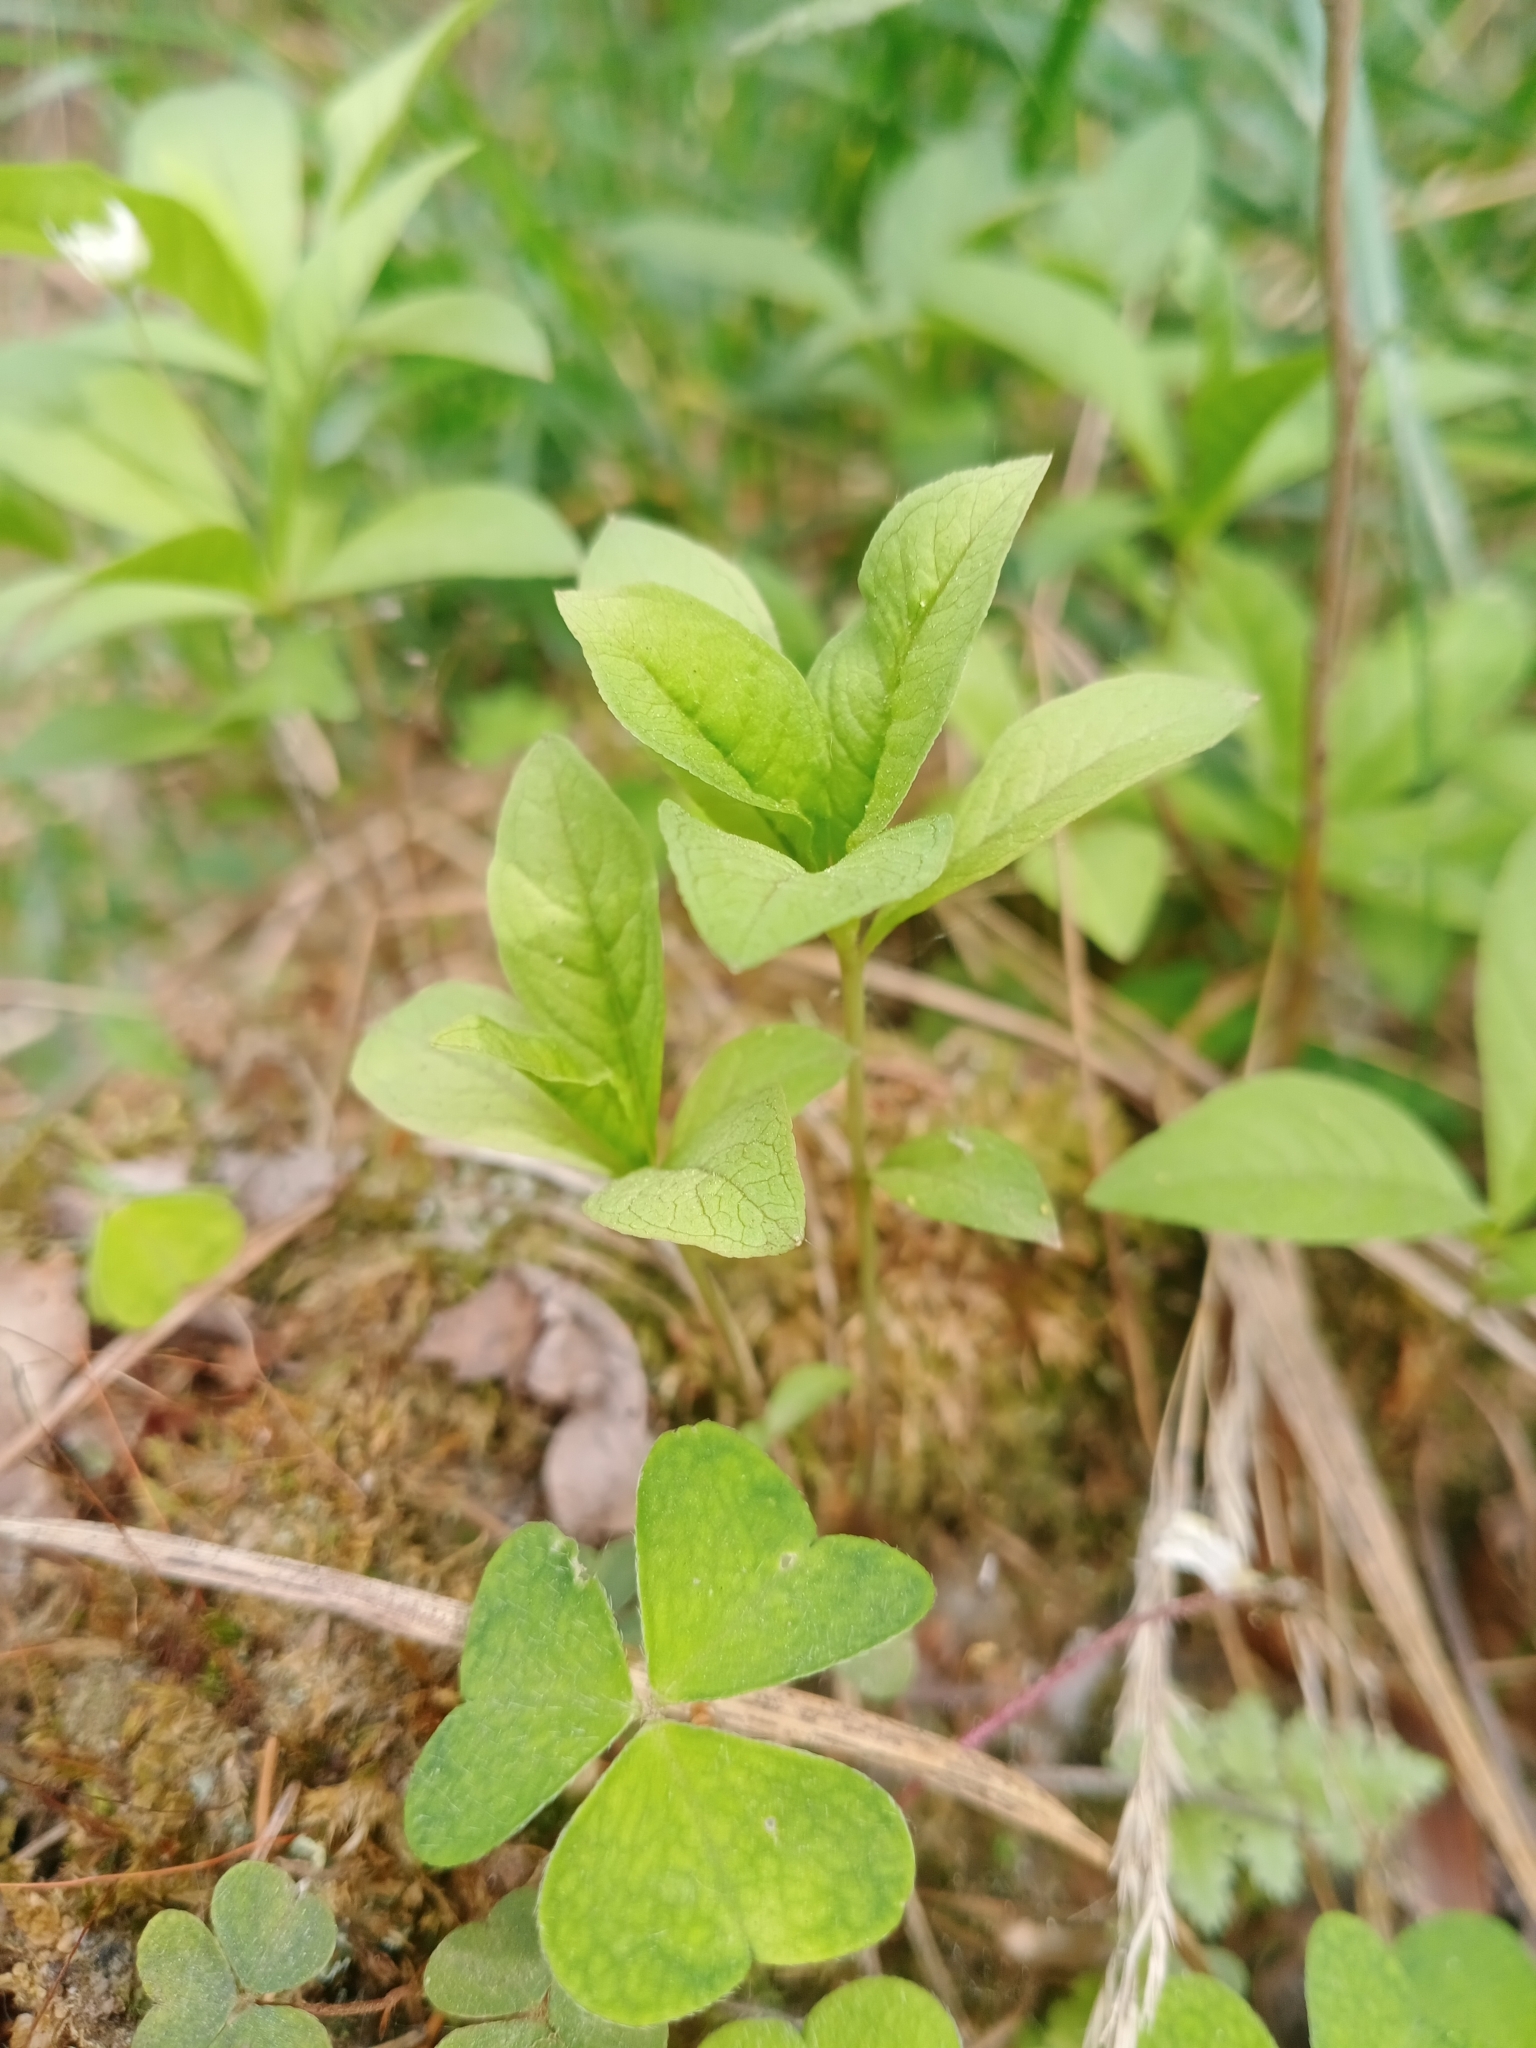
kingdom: Plantae
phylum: Tracheophyta
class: Magnoliopsida
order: Ericales
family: Primulaceae
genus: Lysimachia
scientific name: Lysimachia europaea
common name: Arctic starflower
